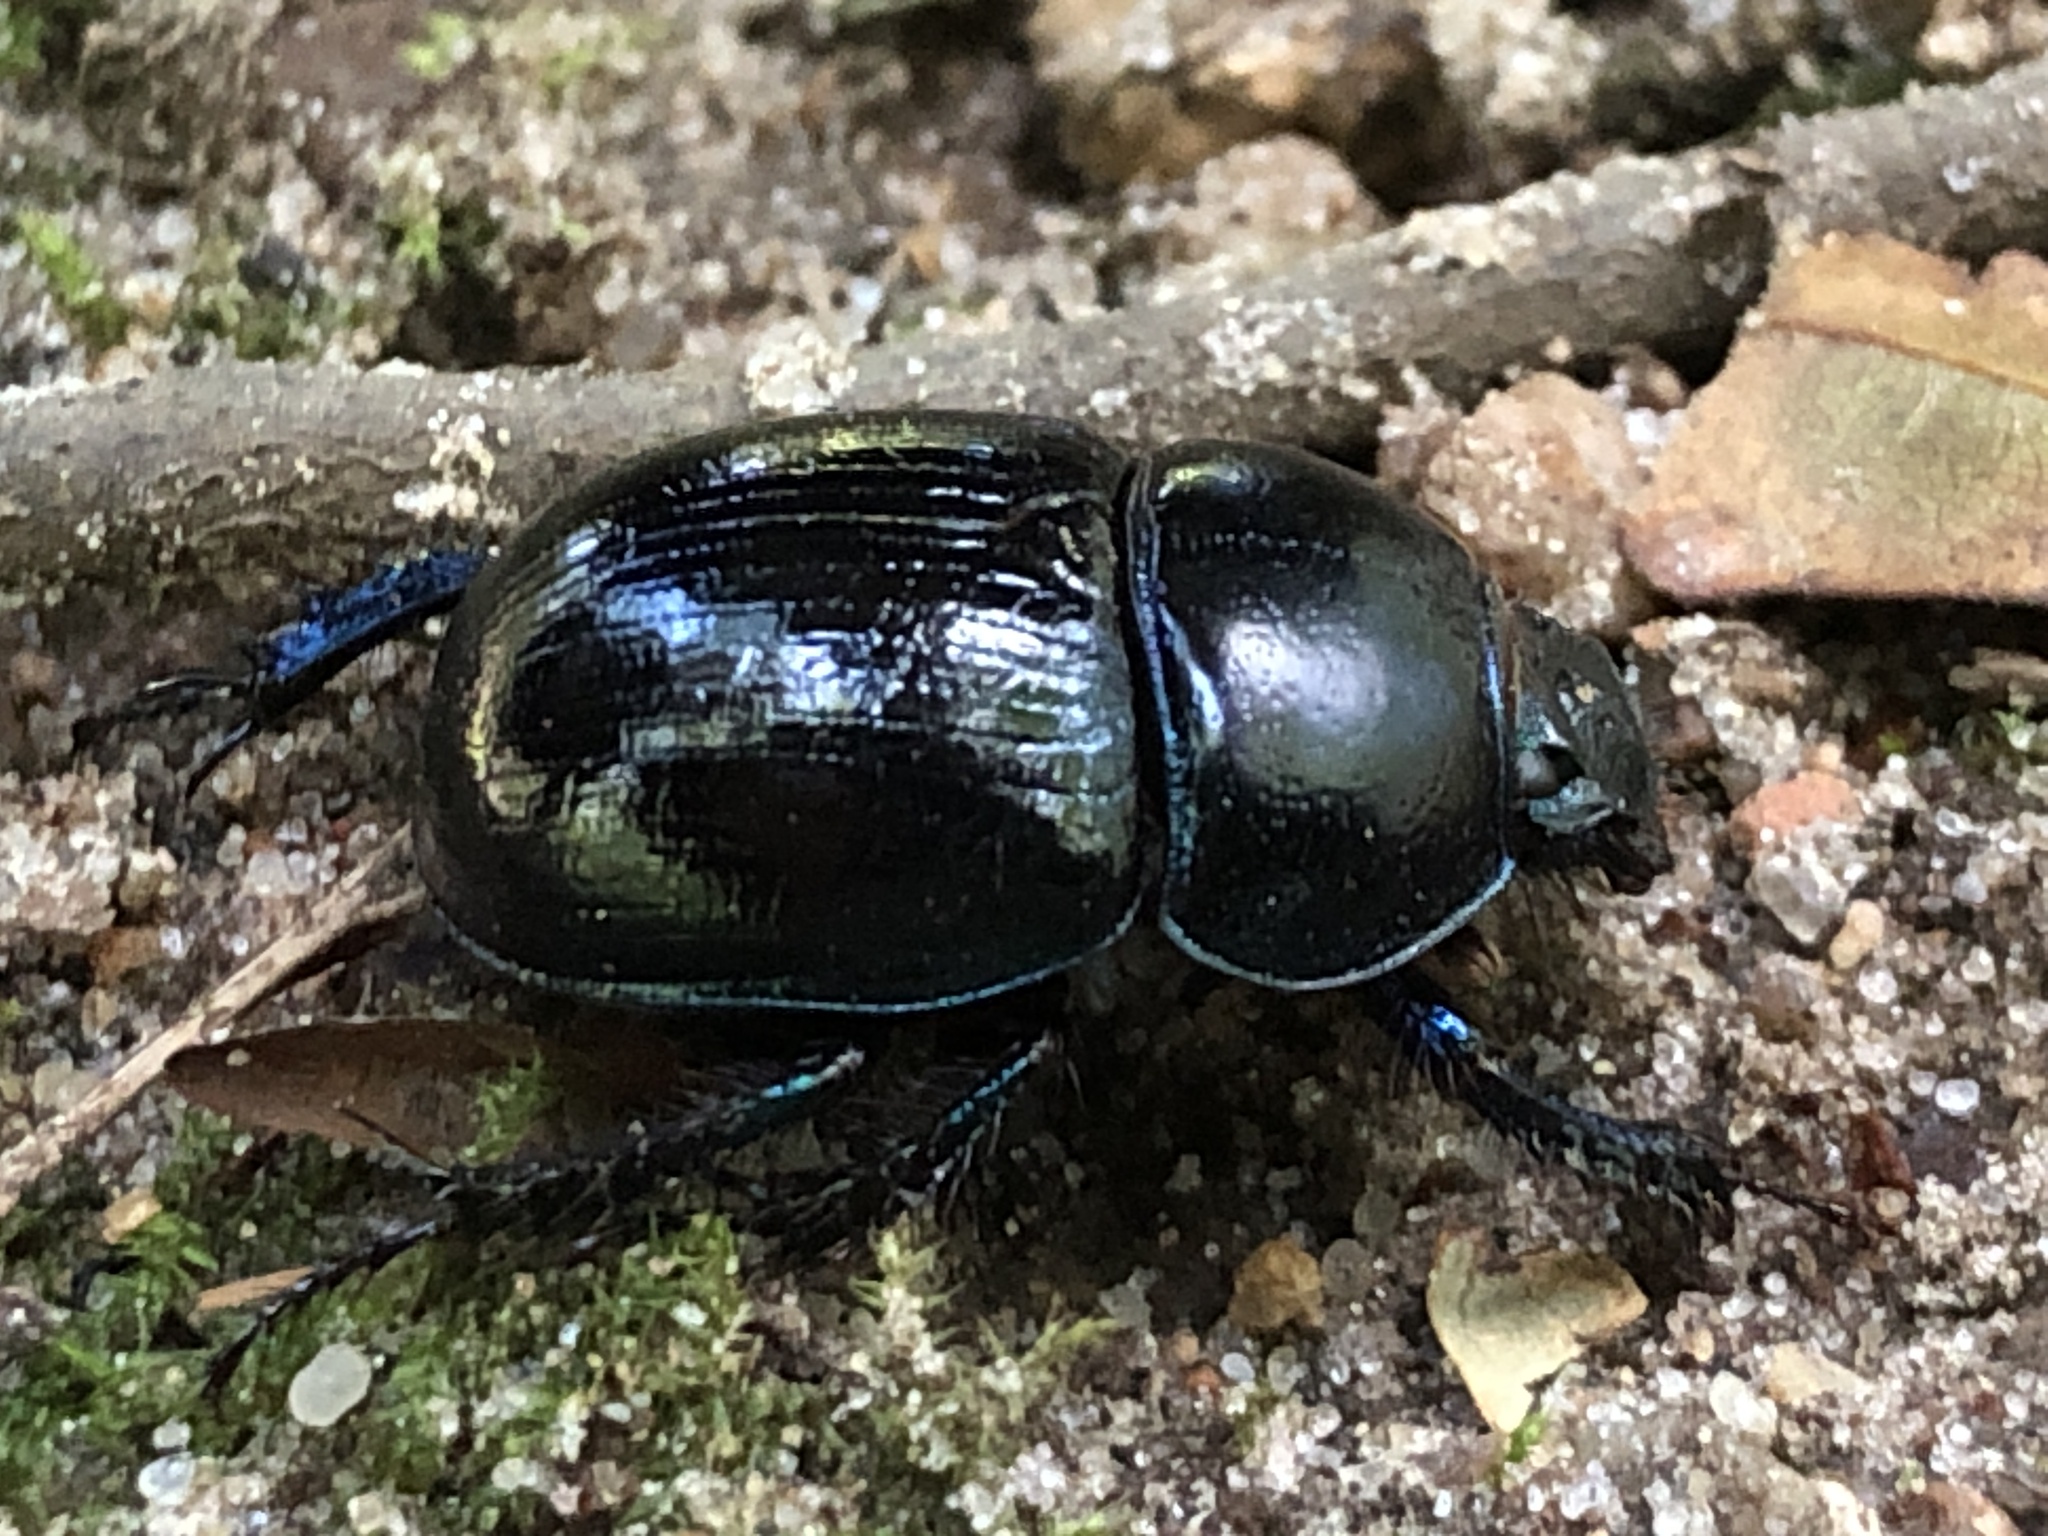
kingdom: Animalia
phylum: Arthropoda
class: Insecta
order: Coleoptera
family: Geotrupidae
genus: Anoplotrupes
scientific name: Anoplotrupes stercorosus
